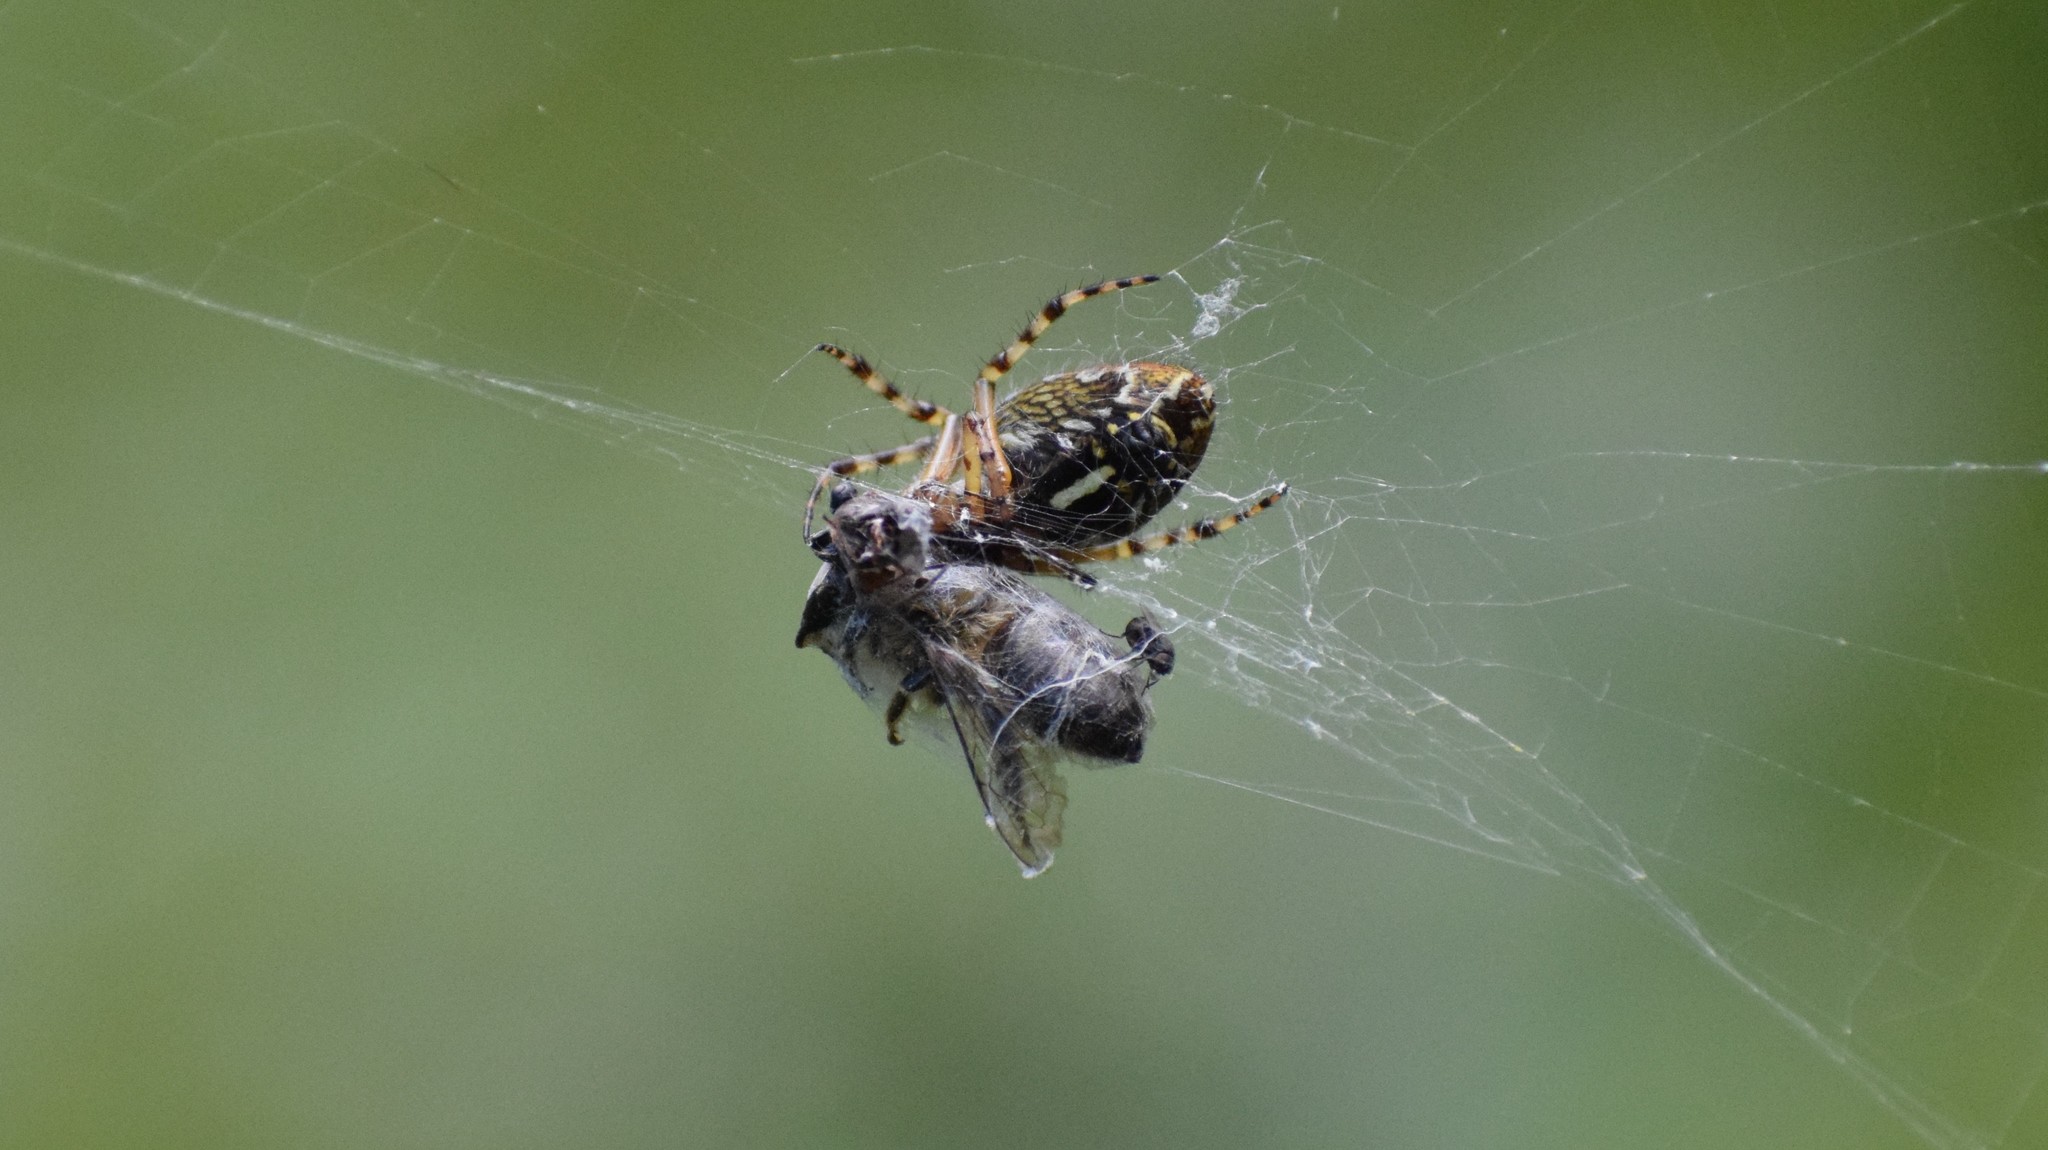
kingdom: Animalia
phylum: Arthropoda
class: Arachnida
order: Araneae
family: Araneidae
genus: Aculepeira
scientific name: Aculepeira ceropegia
